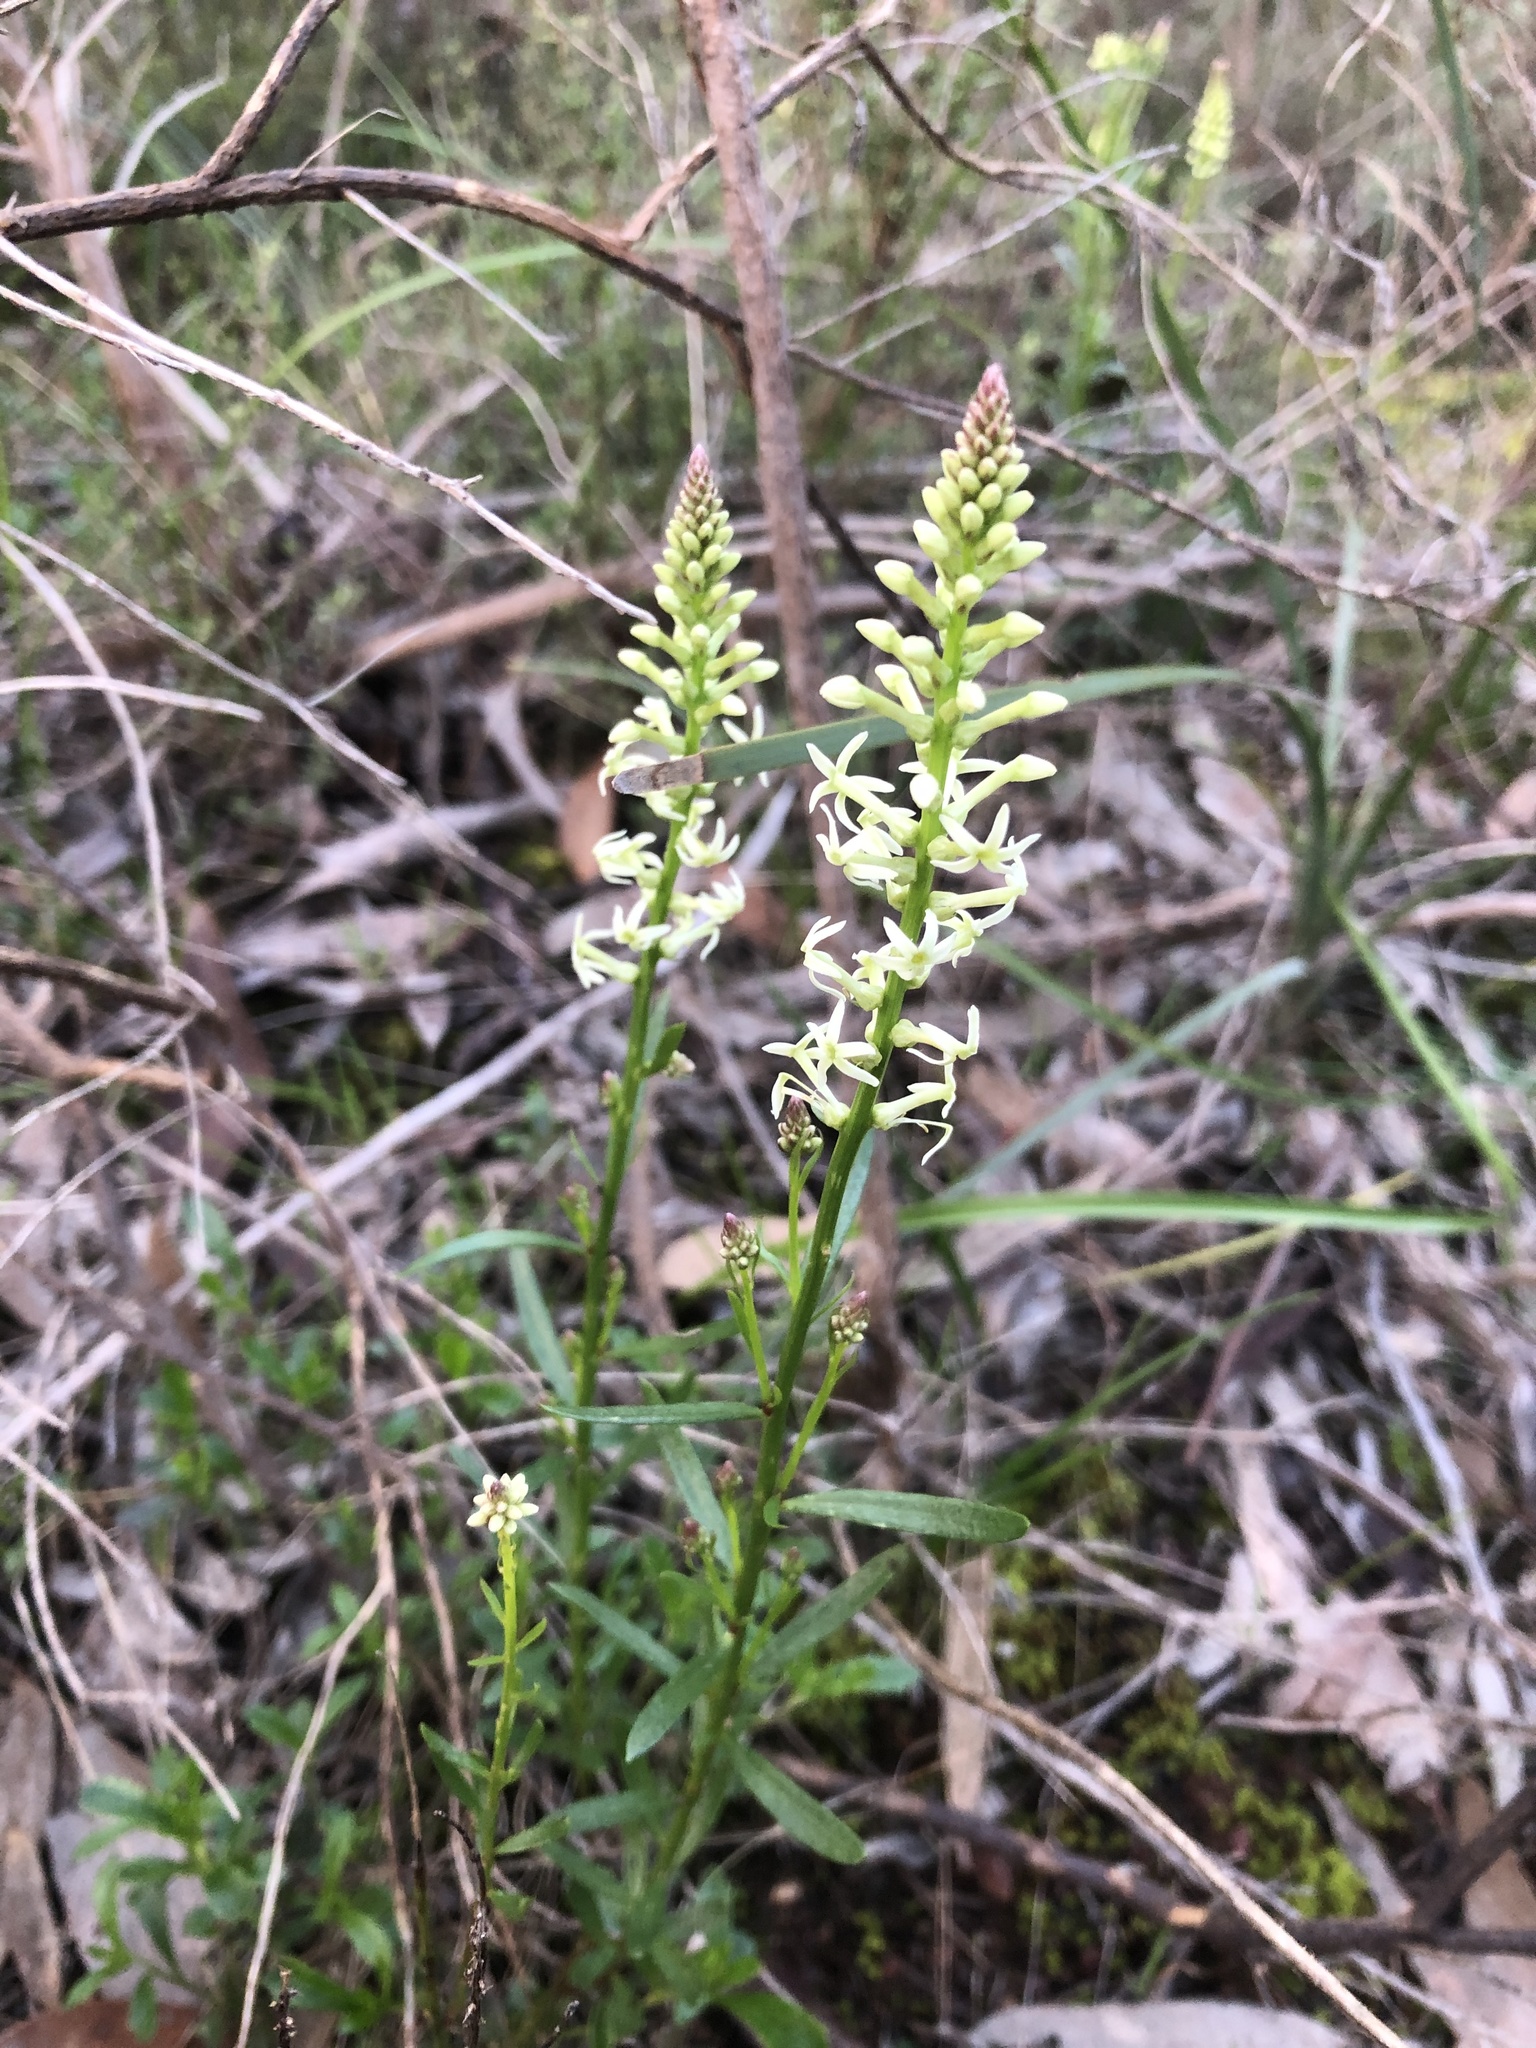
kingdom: Plantae
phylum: Tracheophyta
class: Magnoliopsida
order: Celastrales
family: Celastraceae
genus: Stackhousia
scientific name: Stackhousia monogyna
